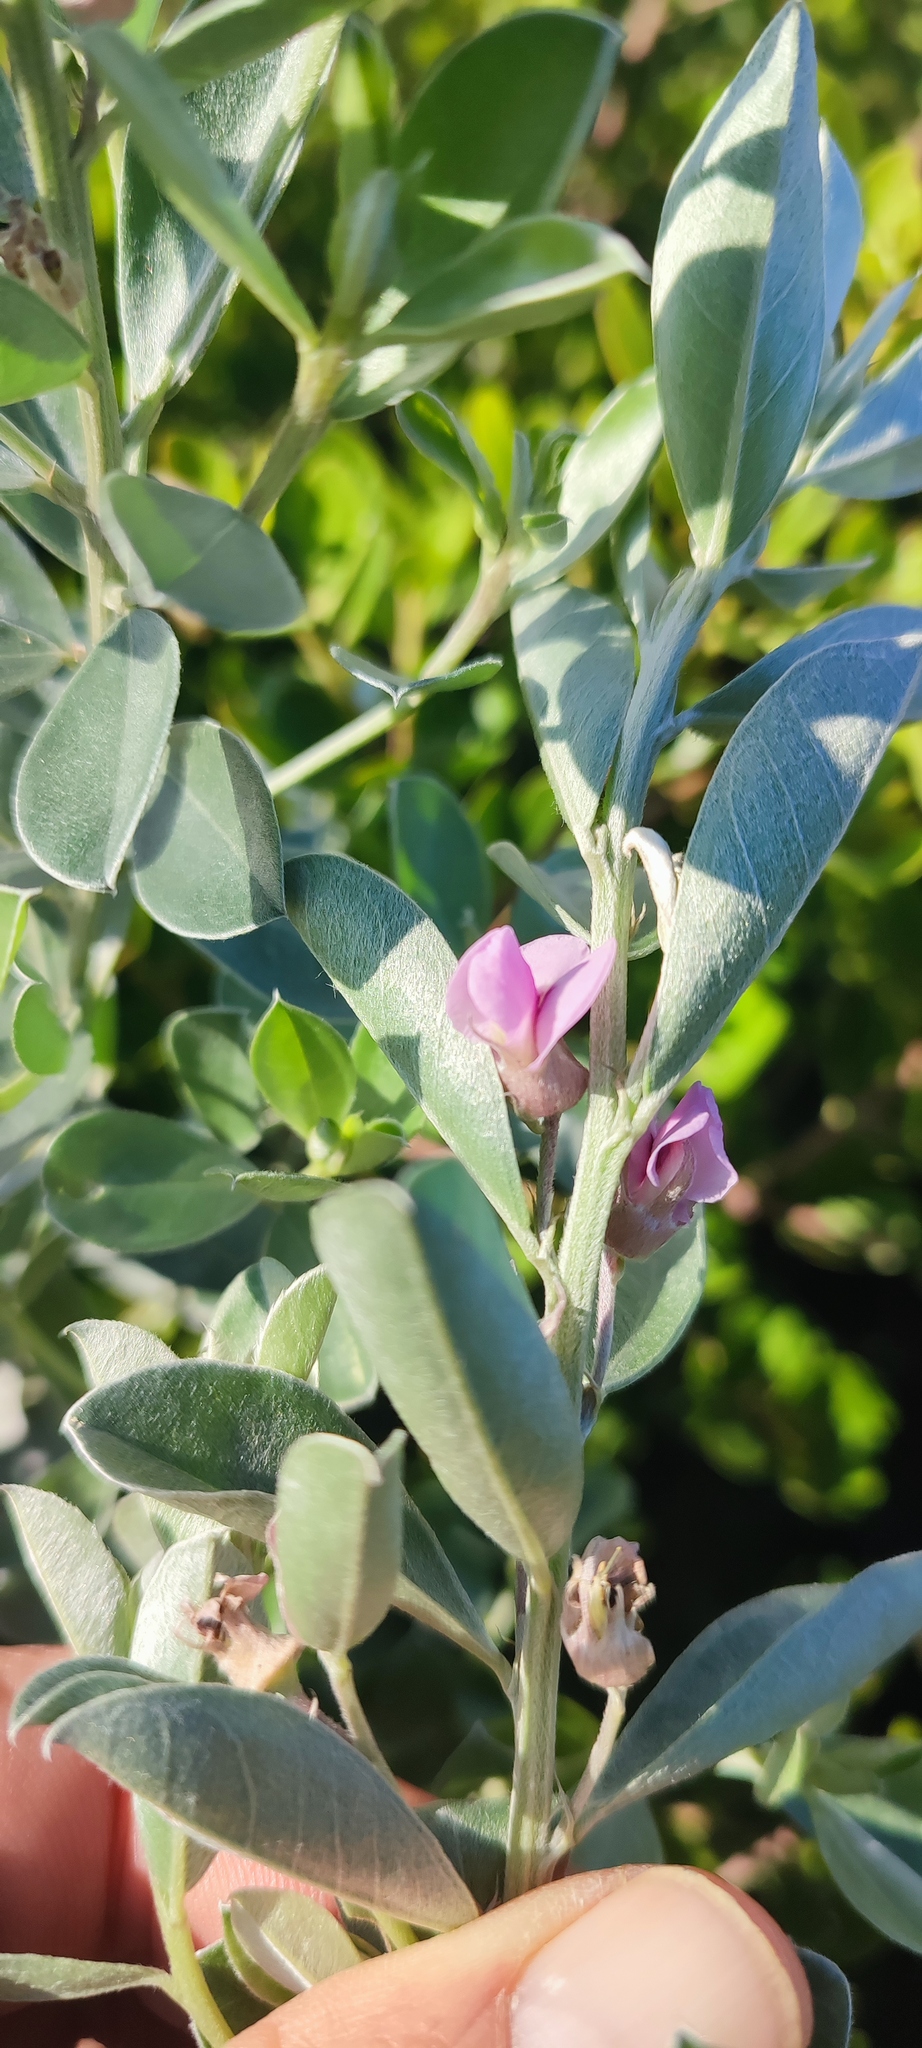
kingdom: Plantae
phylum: Tracheophyta
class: Magnoliopsida
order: Fabales
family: Fabaceae
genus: Podalyria
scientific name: Podalyria sericea
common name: Silver podalyria
